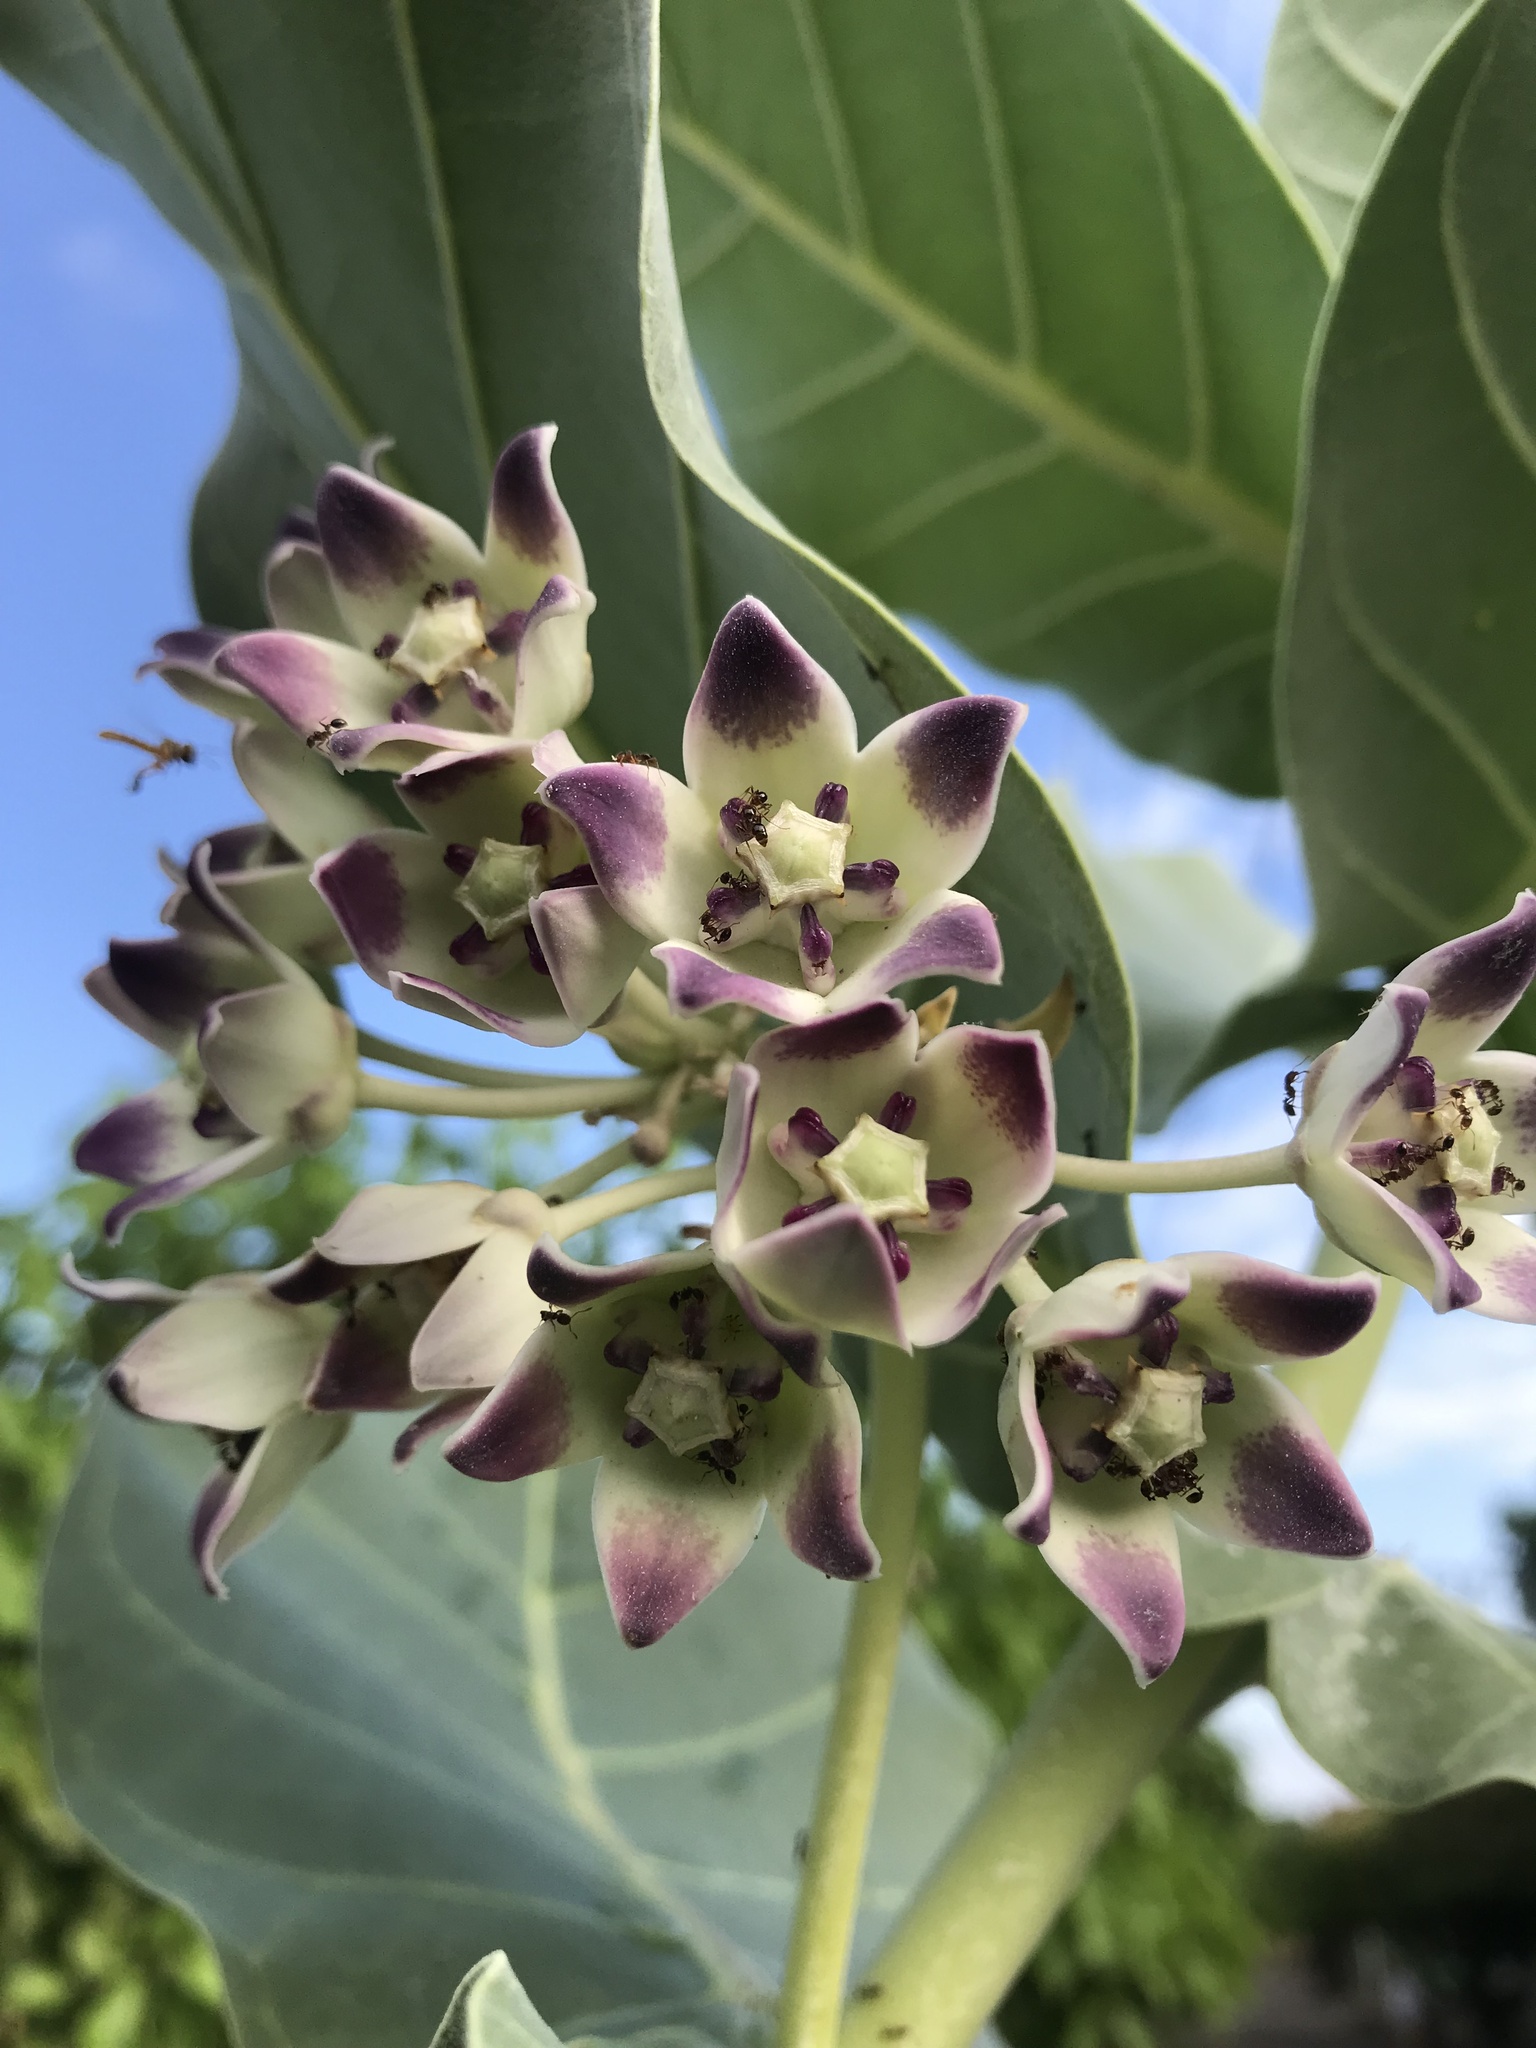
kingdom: Plantae
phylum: Tracheophyta
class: Magnoliopsida
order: Gentianales
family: Apocynaceae
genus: Calotropis
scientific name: Calotropis procera
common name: Roostertree
